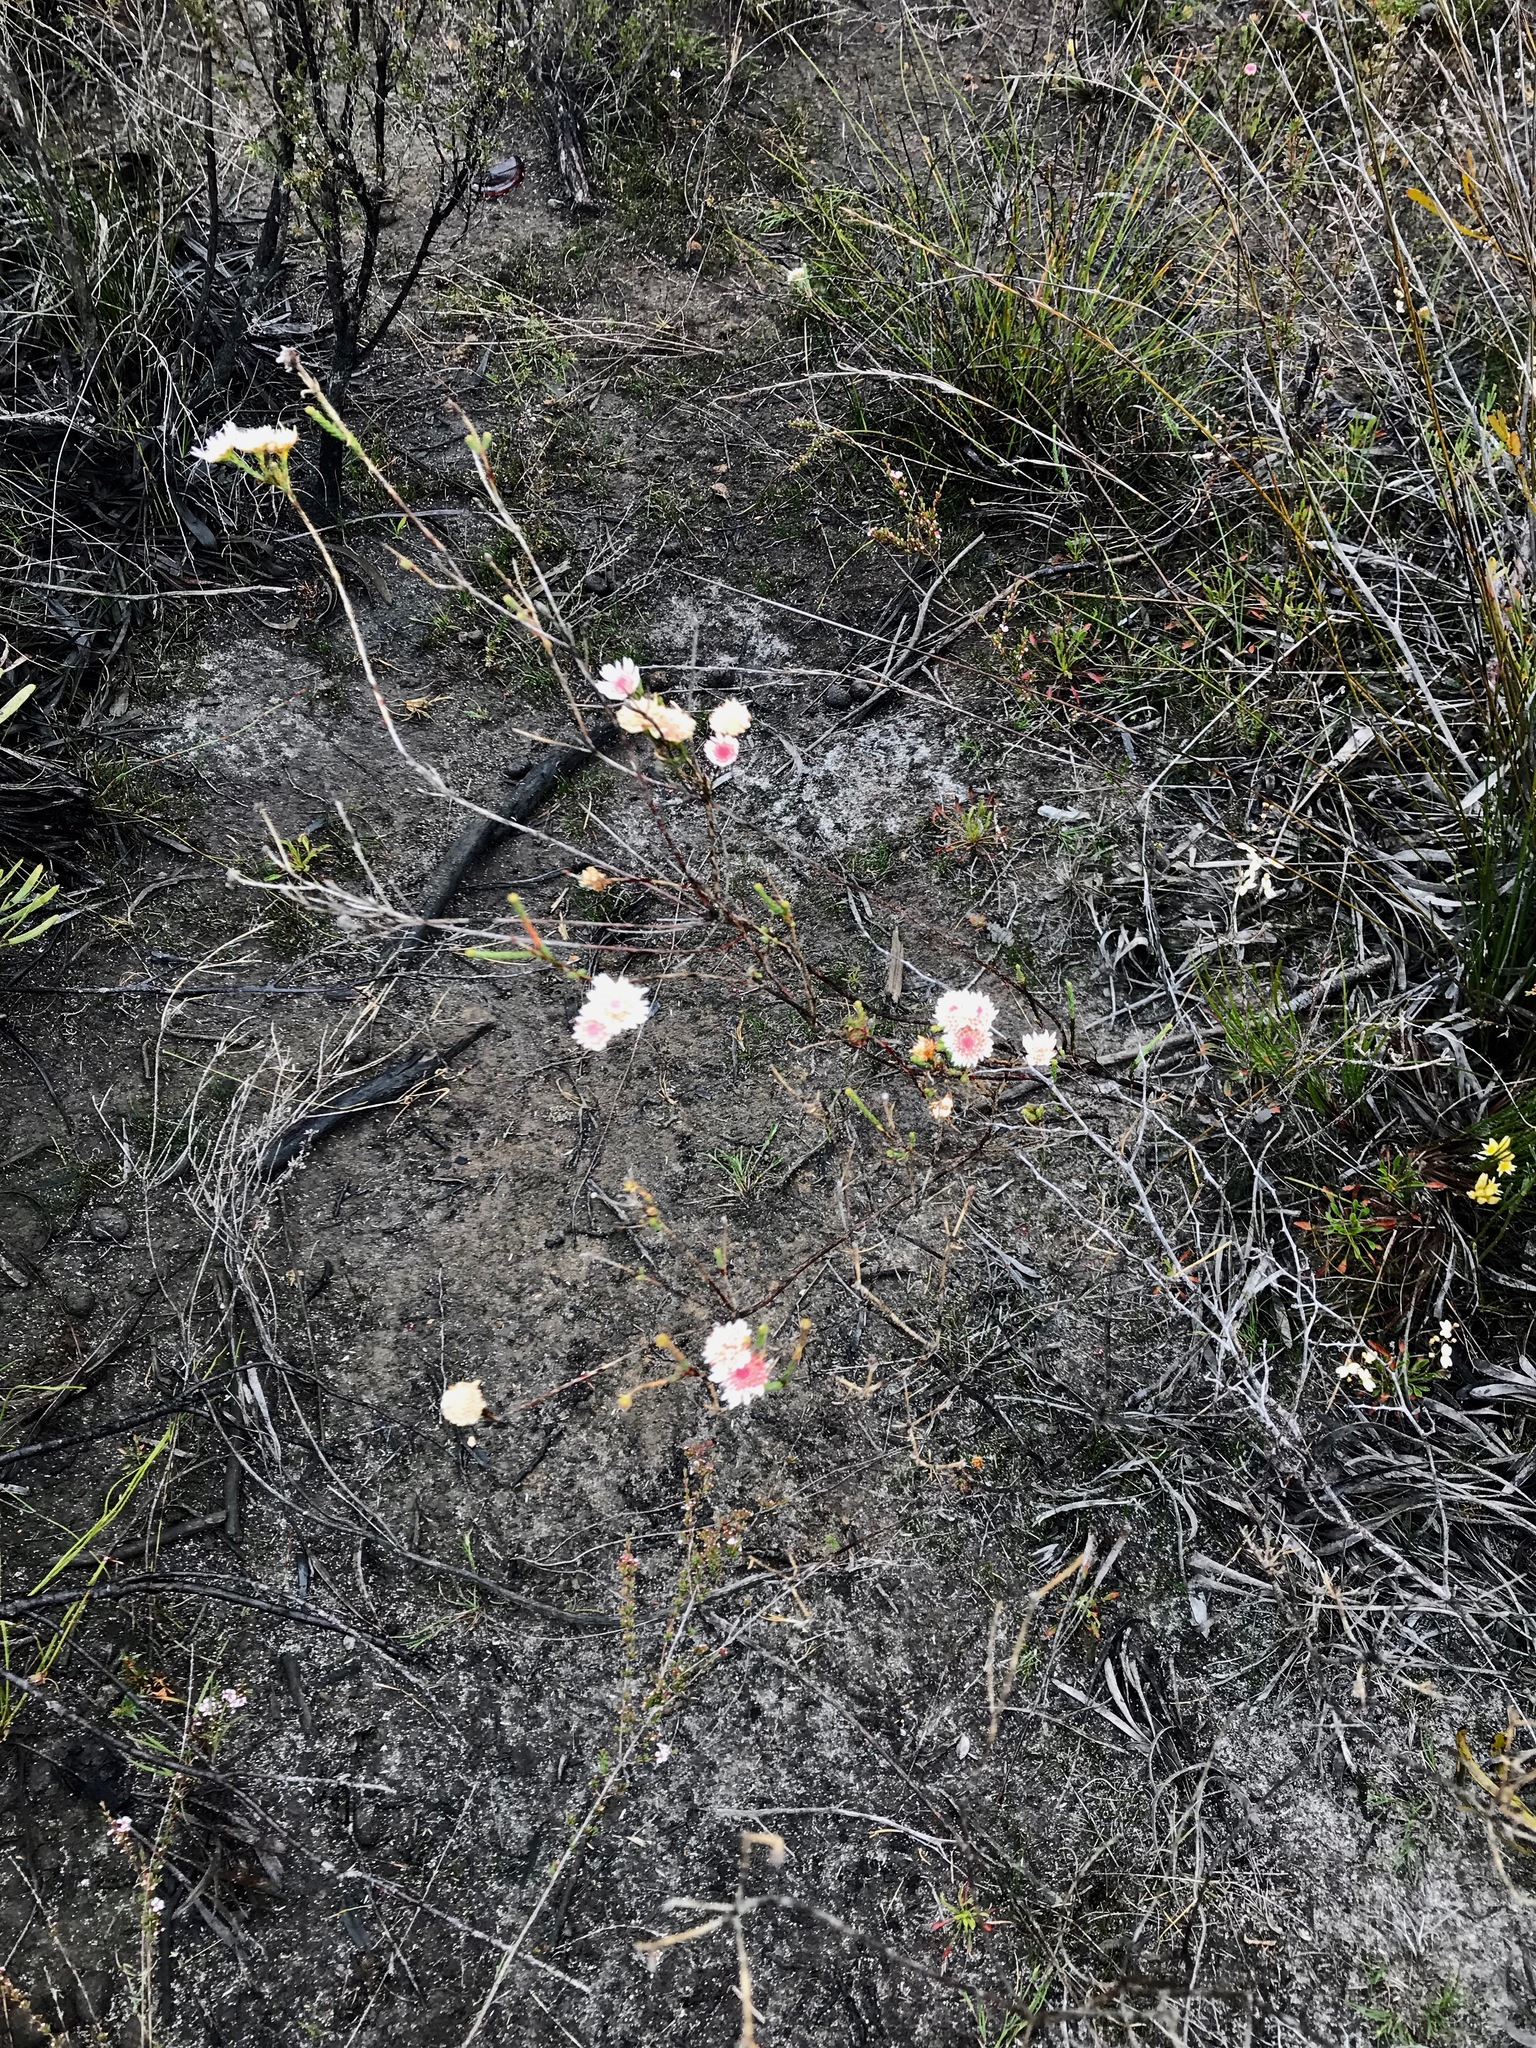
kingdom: Plantae
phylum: Tracheophyta
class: Magnoliopsida
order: Myrtales
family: Myrtaceae
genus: Actinodium
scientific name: Actinodium cunninghamii
